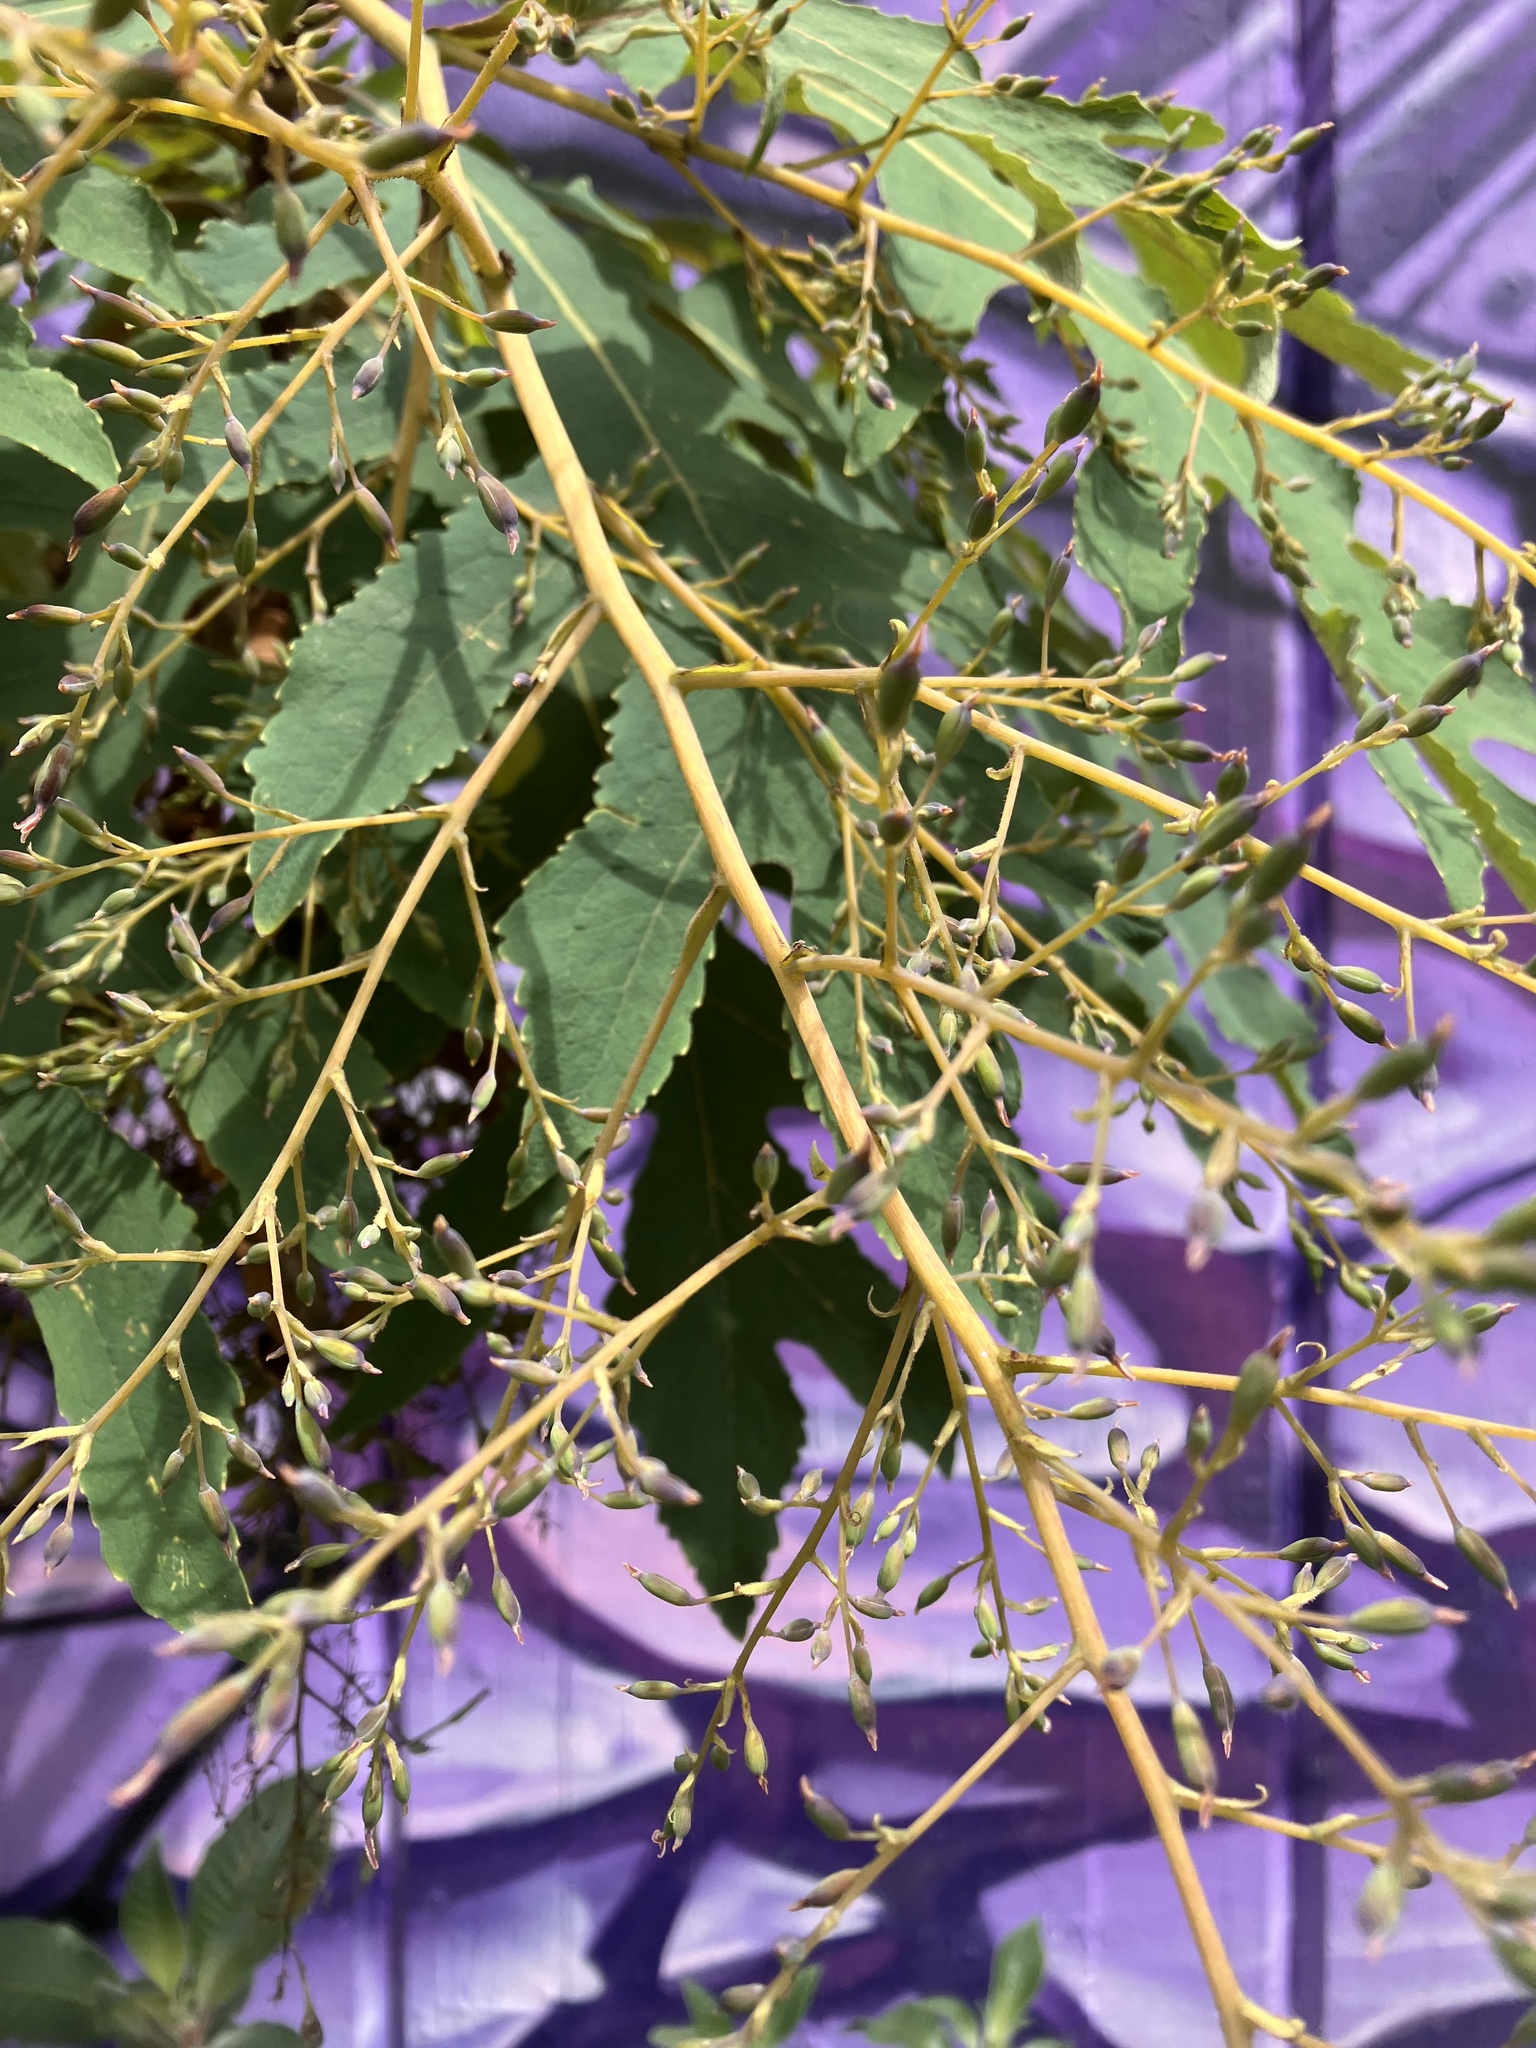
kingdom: Plantae
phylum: Tracheophyta
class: Magnoliopsida
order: Ranunculales
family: Papaveraceae
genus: Bocconia
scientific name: Bocconia frutescens
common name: Tree poppy
